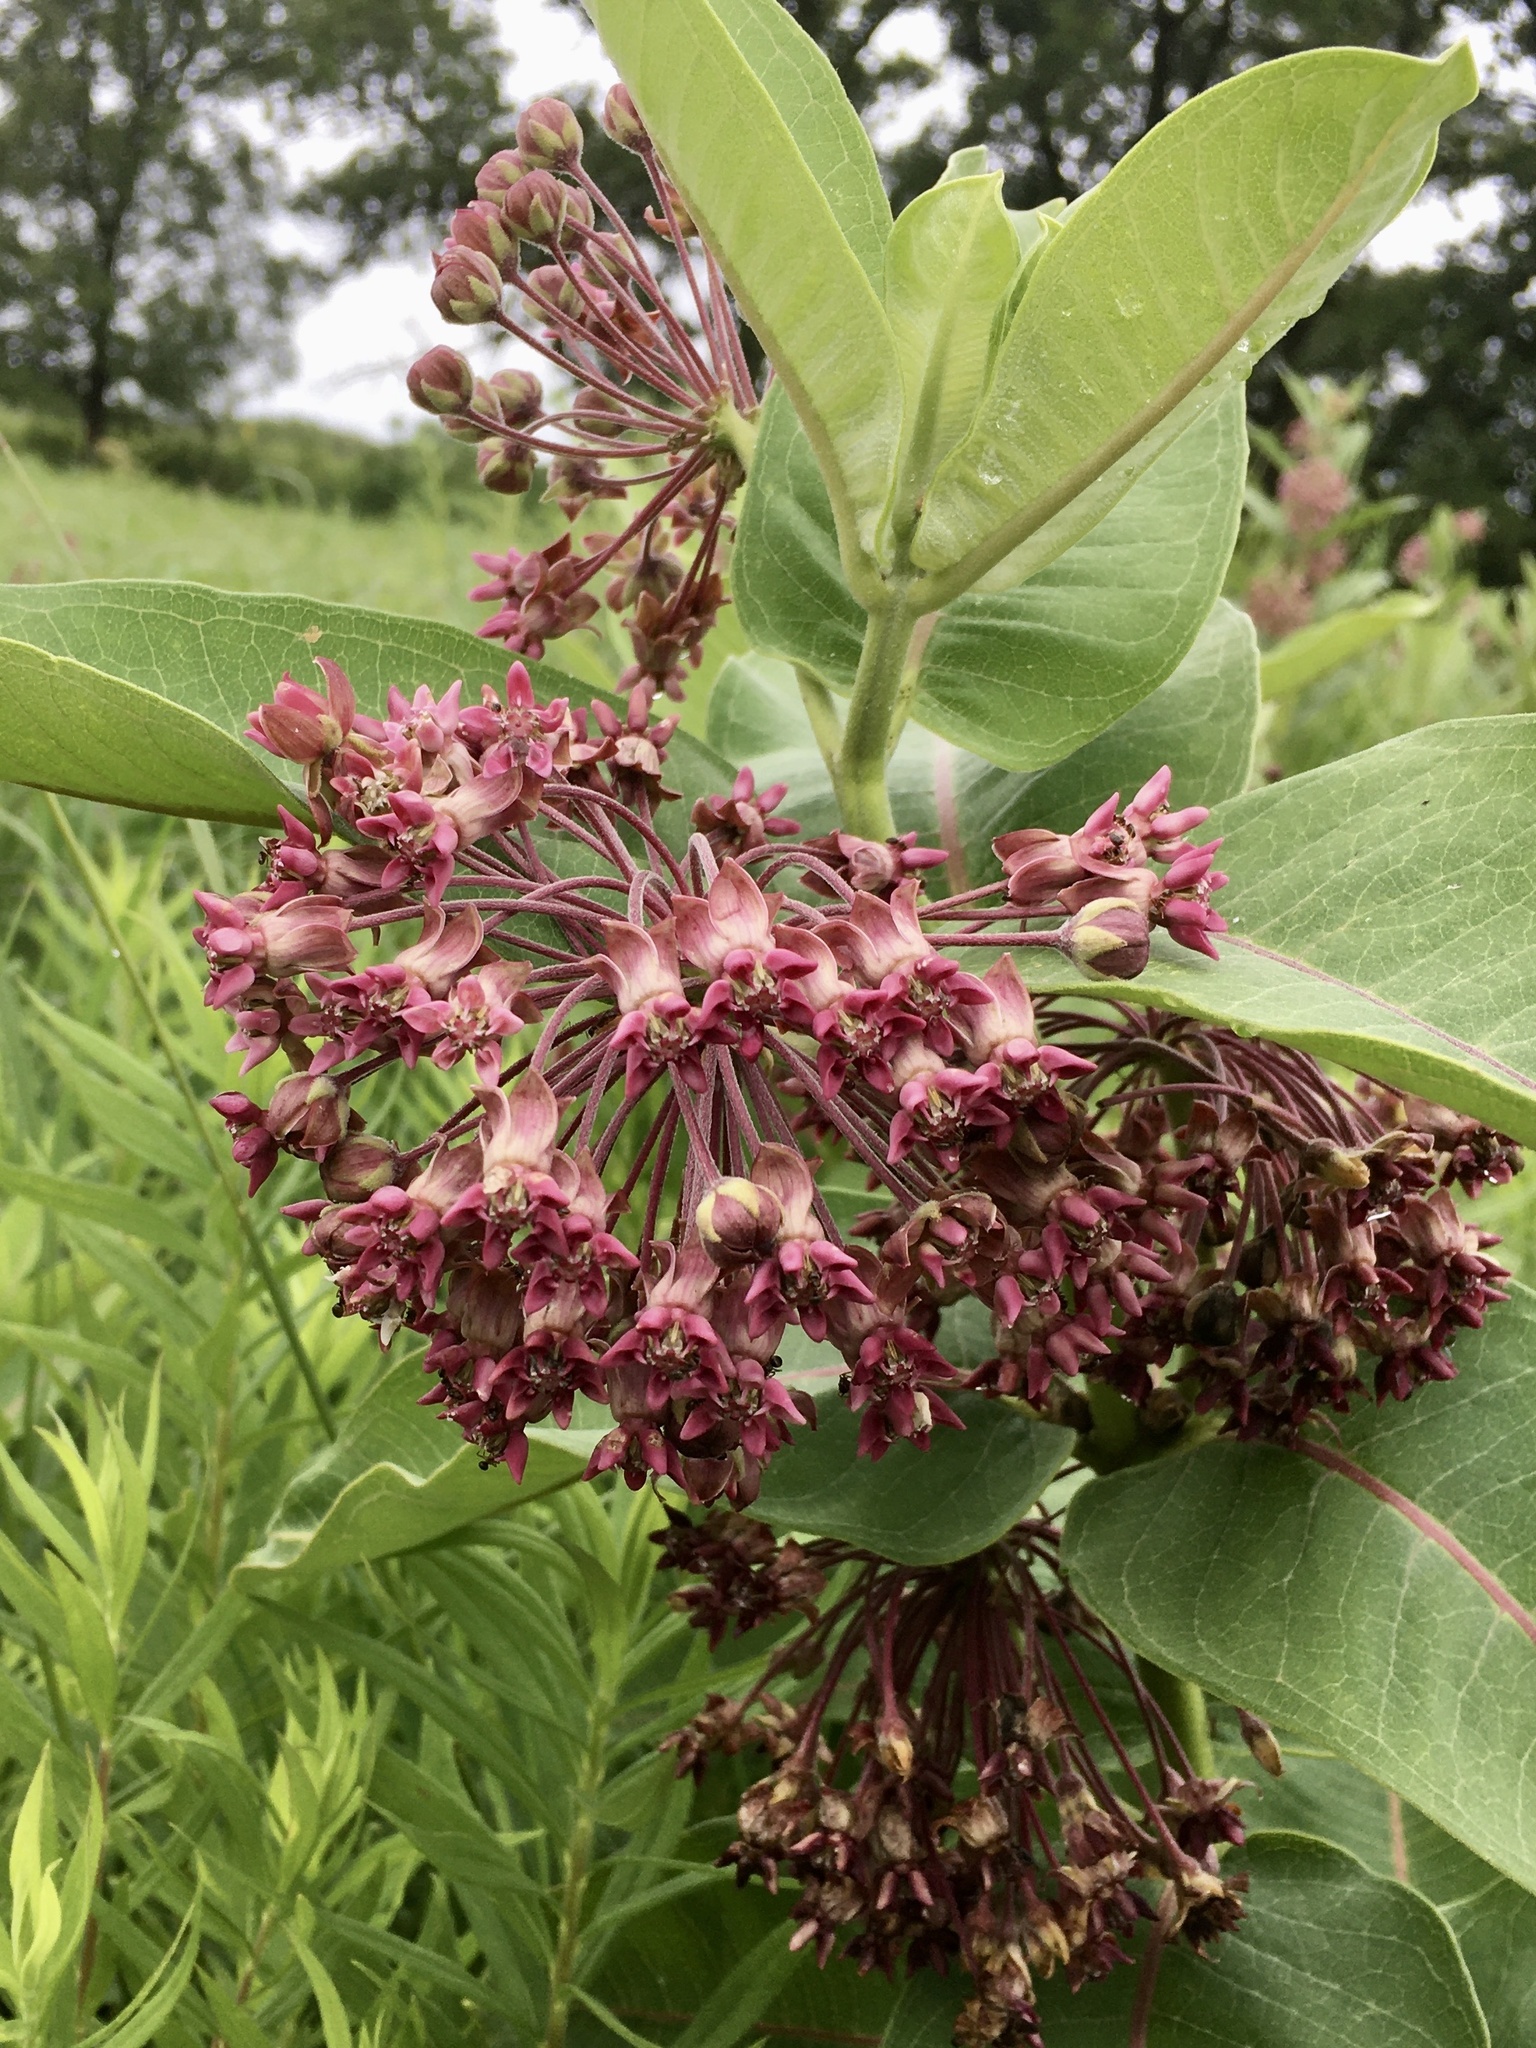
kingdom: Plantae
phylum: Tracheophyta
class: Magnoliopsida
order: Gentianales
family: Apocynaceae
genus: Asclepias
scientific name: Asclepias syriaca
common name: Common milkweed
